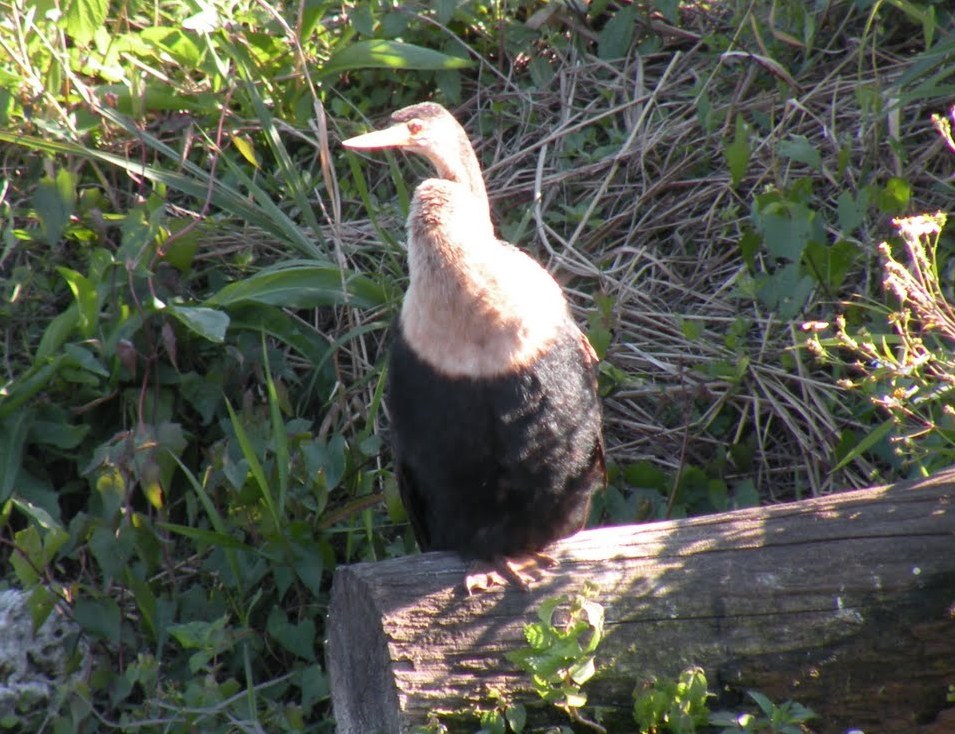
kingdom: Animalia
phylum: Chordata
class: Aves
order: Suliformes
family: Anhingidae
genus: Anhinga
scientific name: Anhinga anhinga
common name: Anhinga
